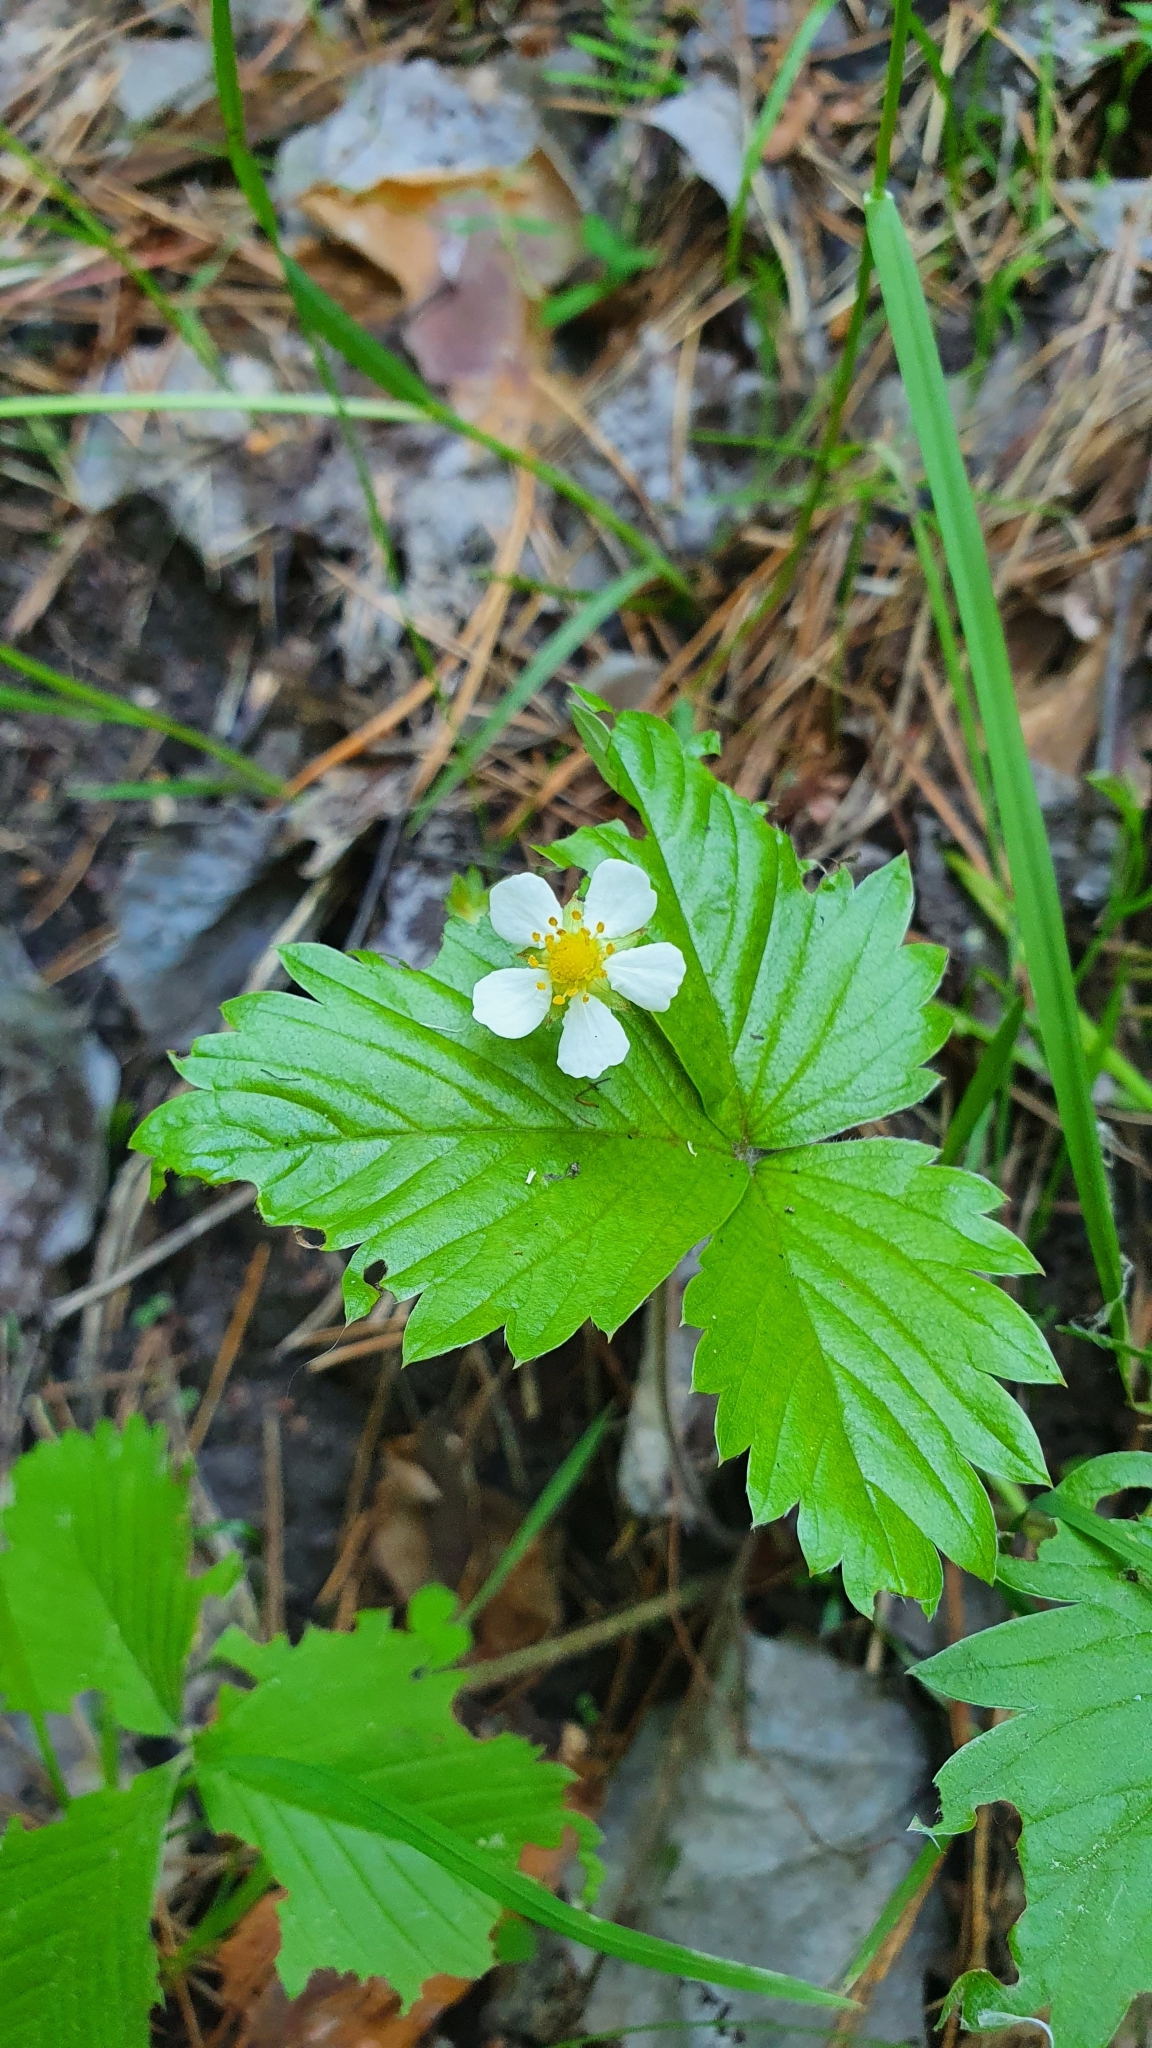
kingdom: Plantae
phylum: Tracheophyta
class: Magnoliopsida
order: Rosales
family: Rosaceae
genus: Fragaria
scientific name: Fragaria vesca
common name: Wild strawberry
